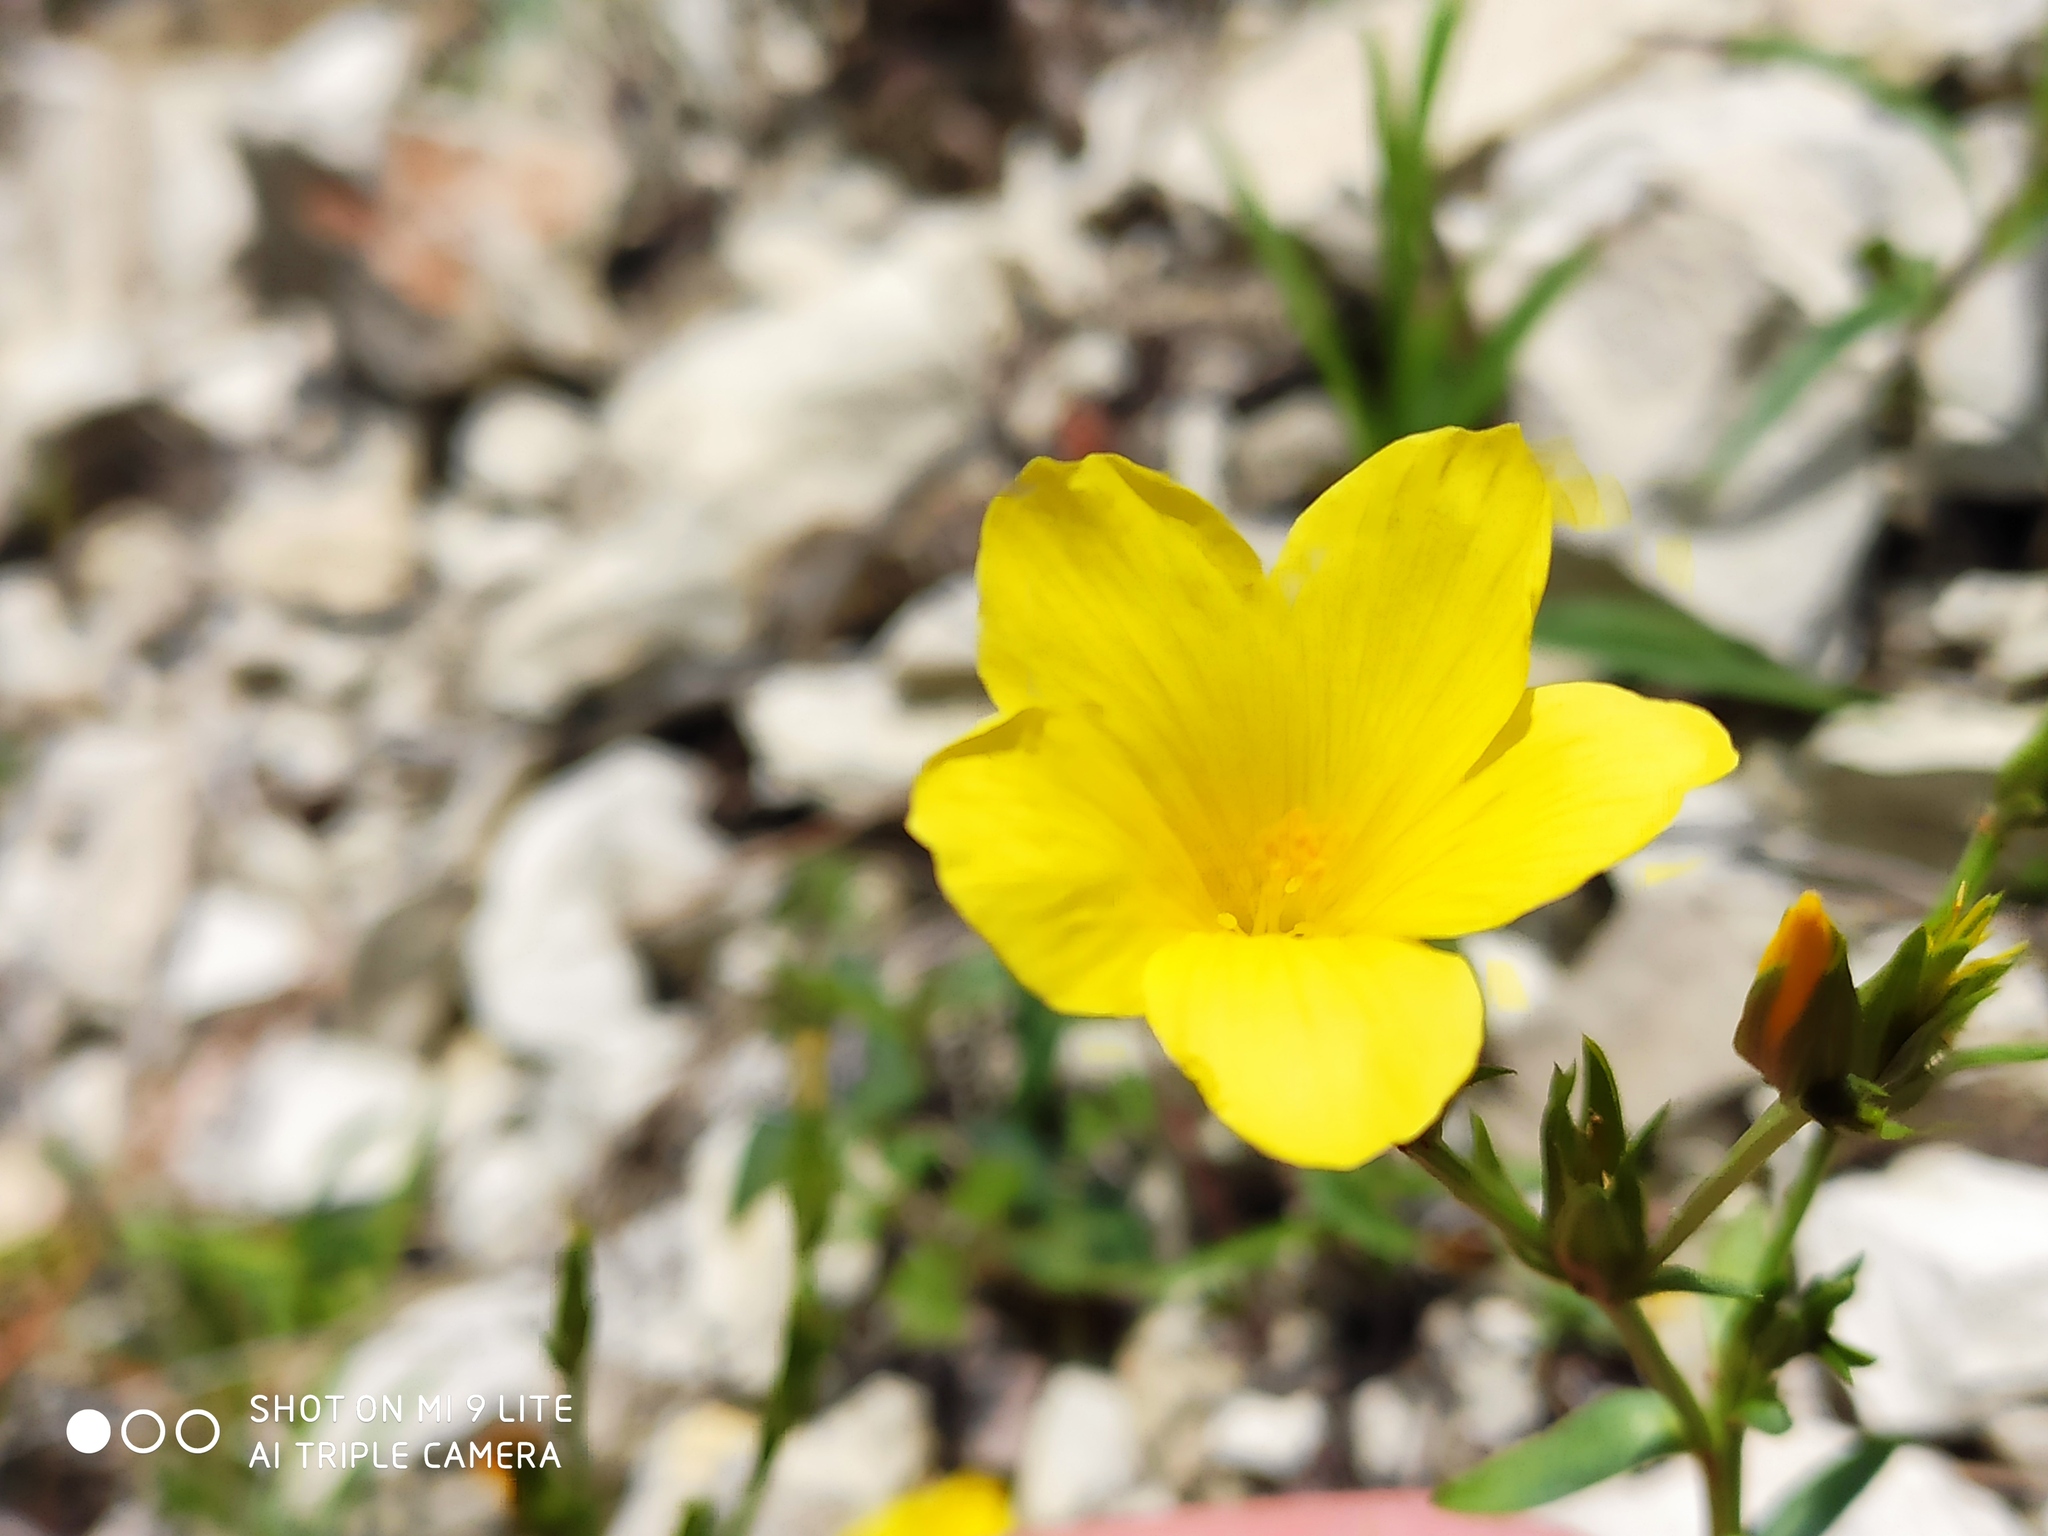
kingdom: Plantae
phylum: Tracheophyta
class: Magnoliopsida
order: Malpighiales
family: Linaceae
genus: Linum
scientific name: Linum tauricum
